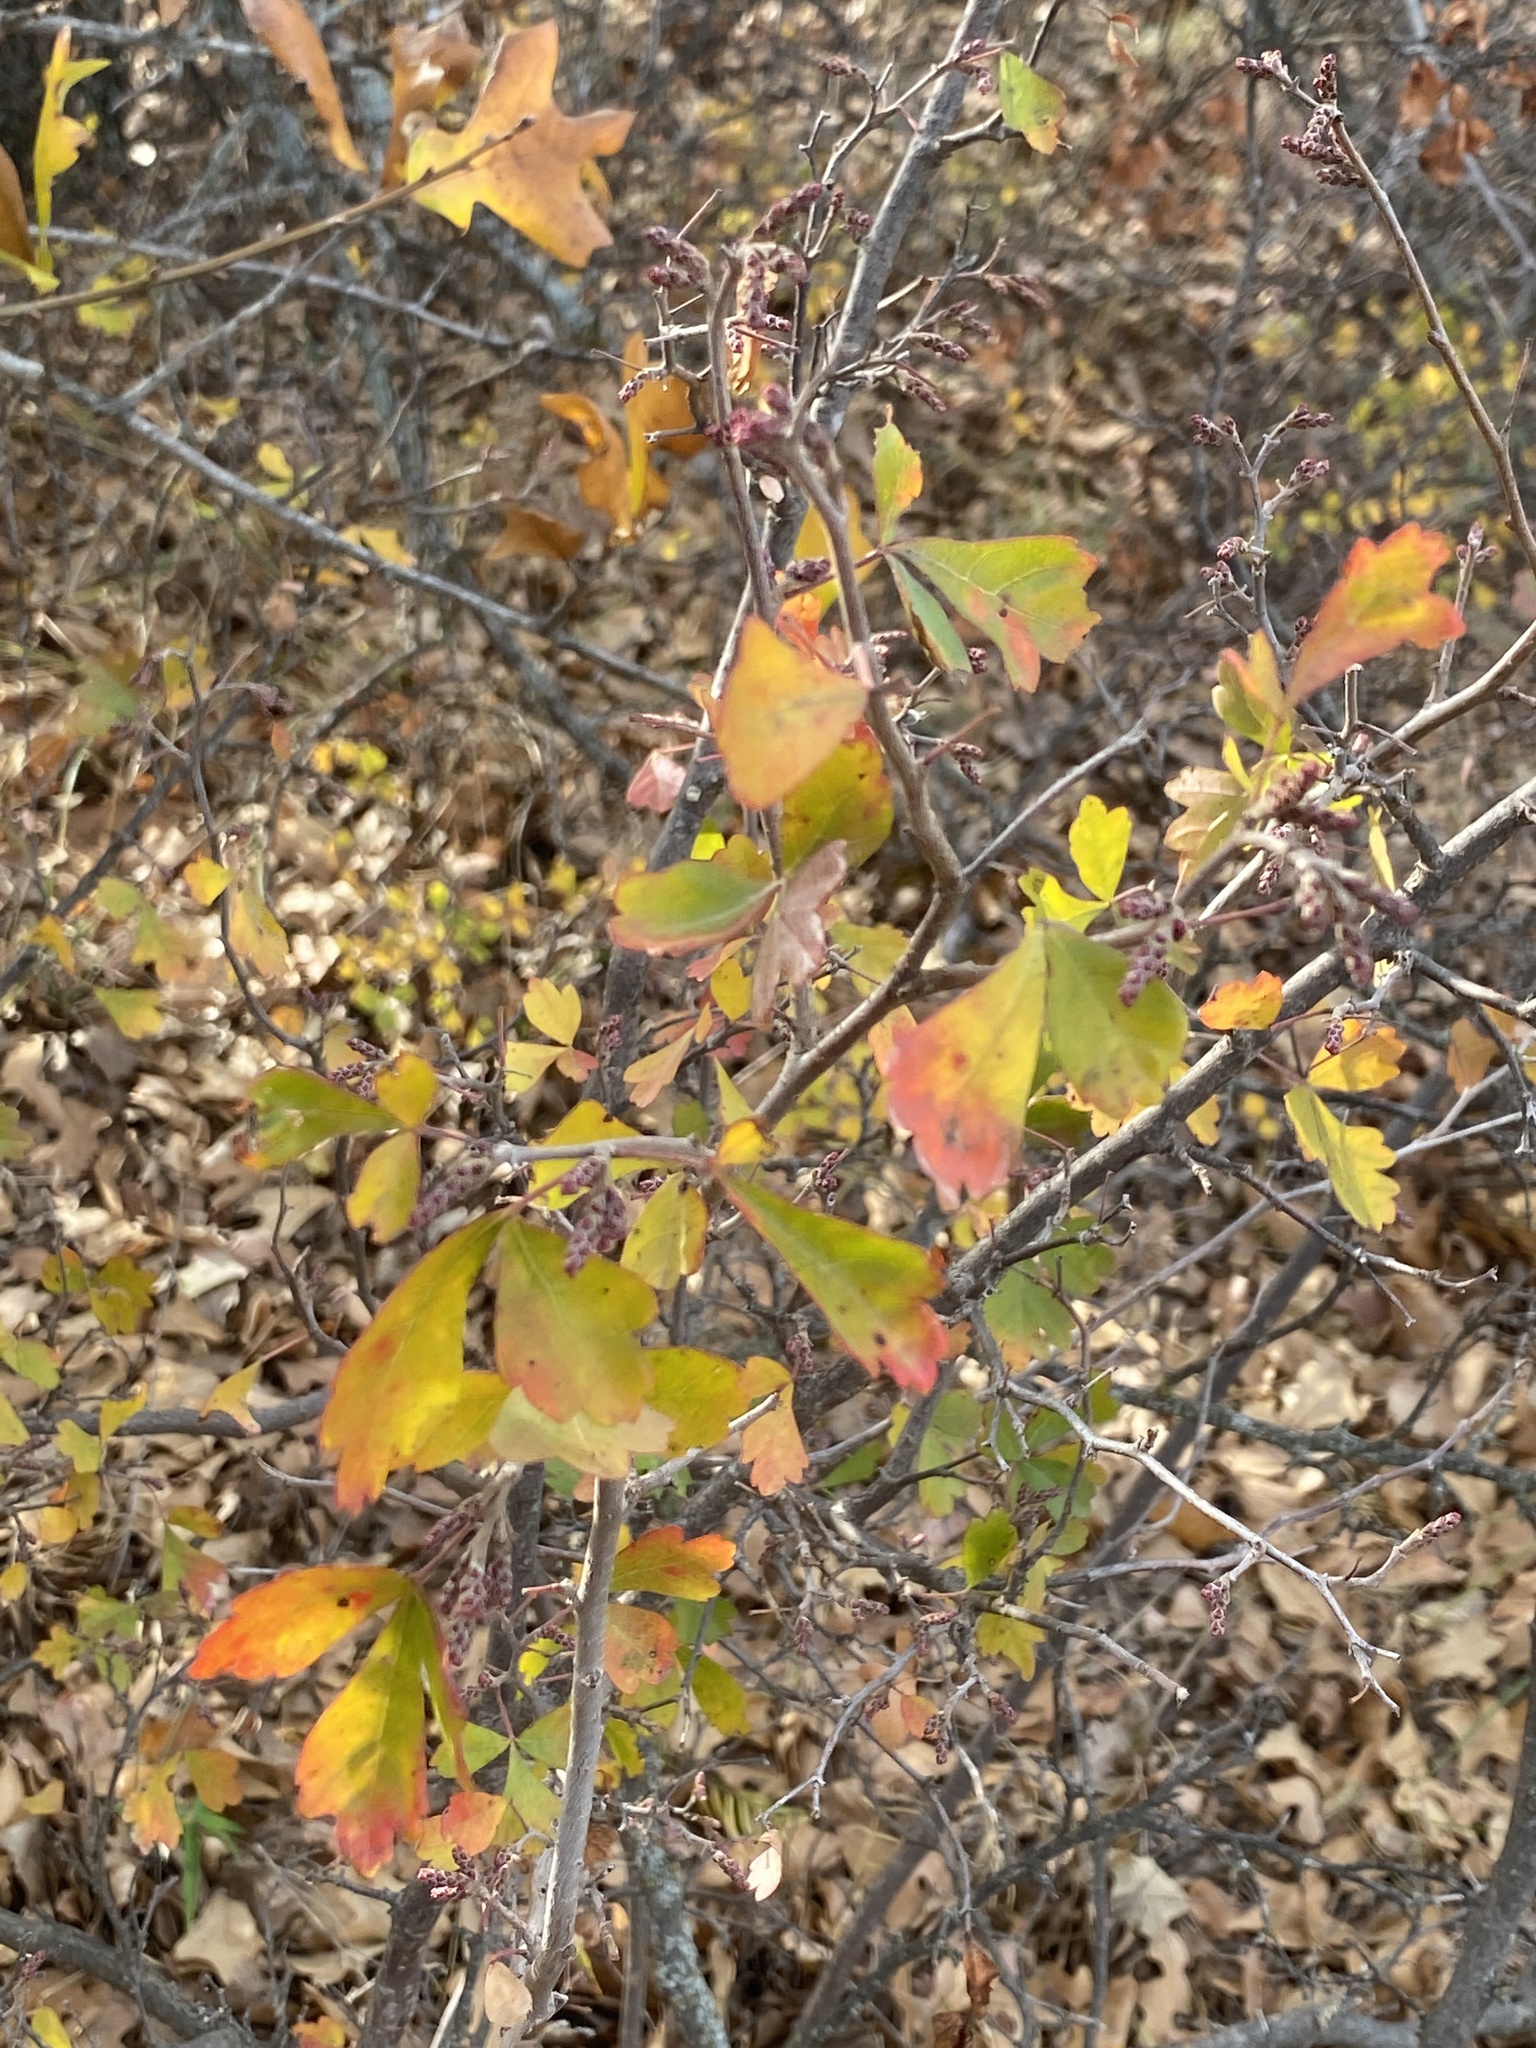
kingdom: Plantae
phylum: Tracheophyta
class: Magnoliopsida
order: Sapindales
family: Anacardiaceae
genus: Rhus
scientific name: Rhus aromatica
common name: Aromatic sumac
